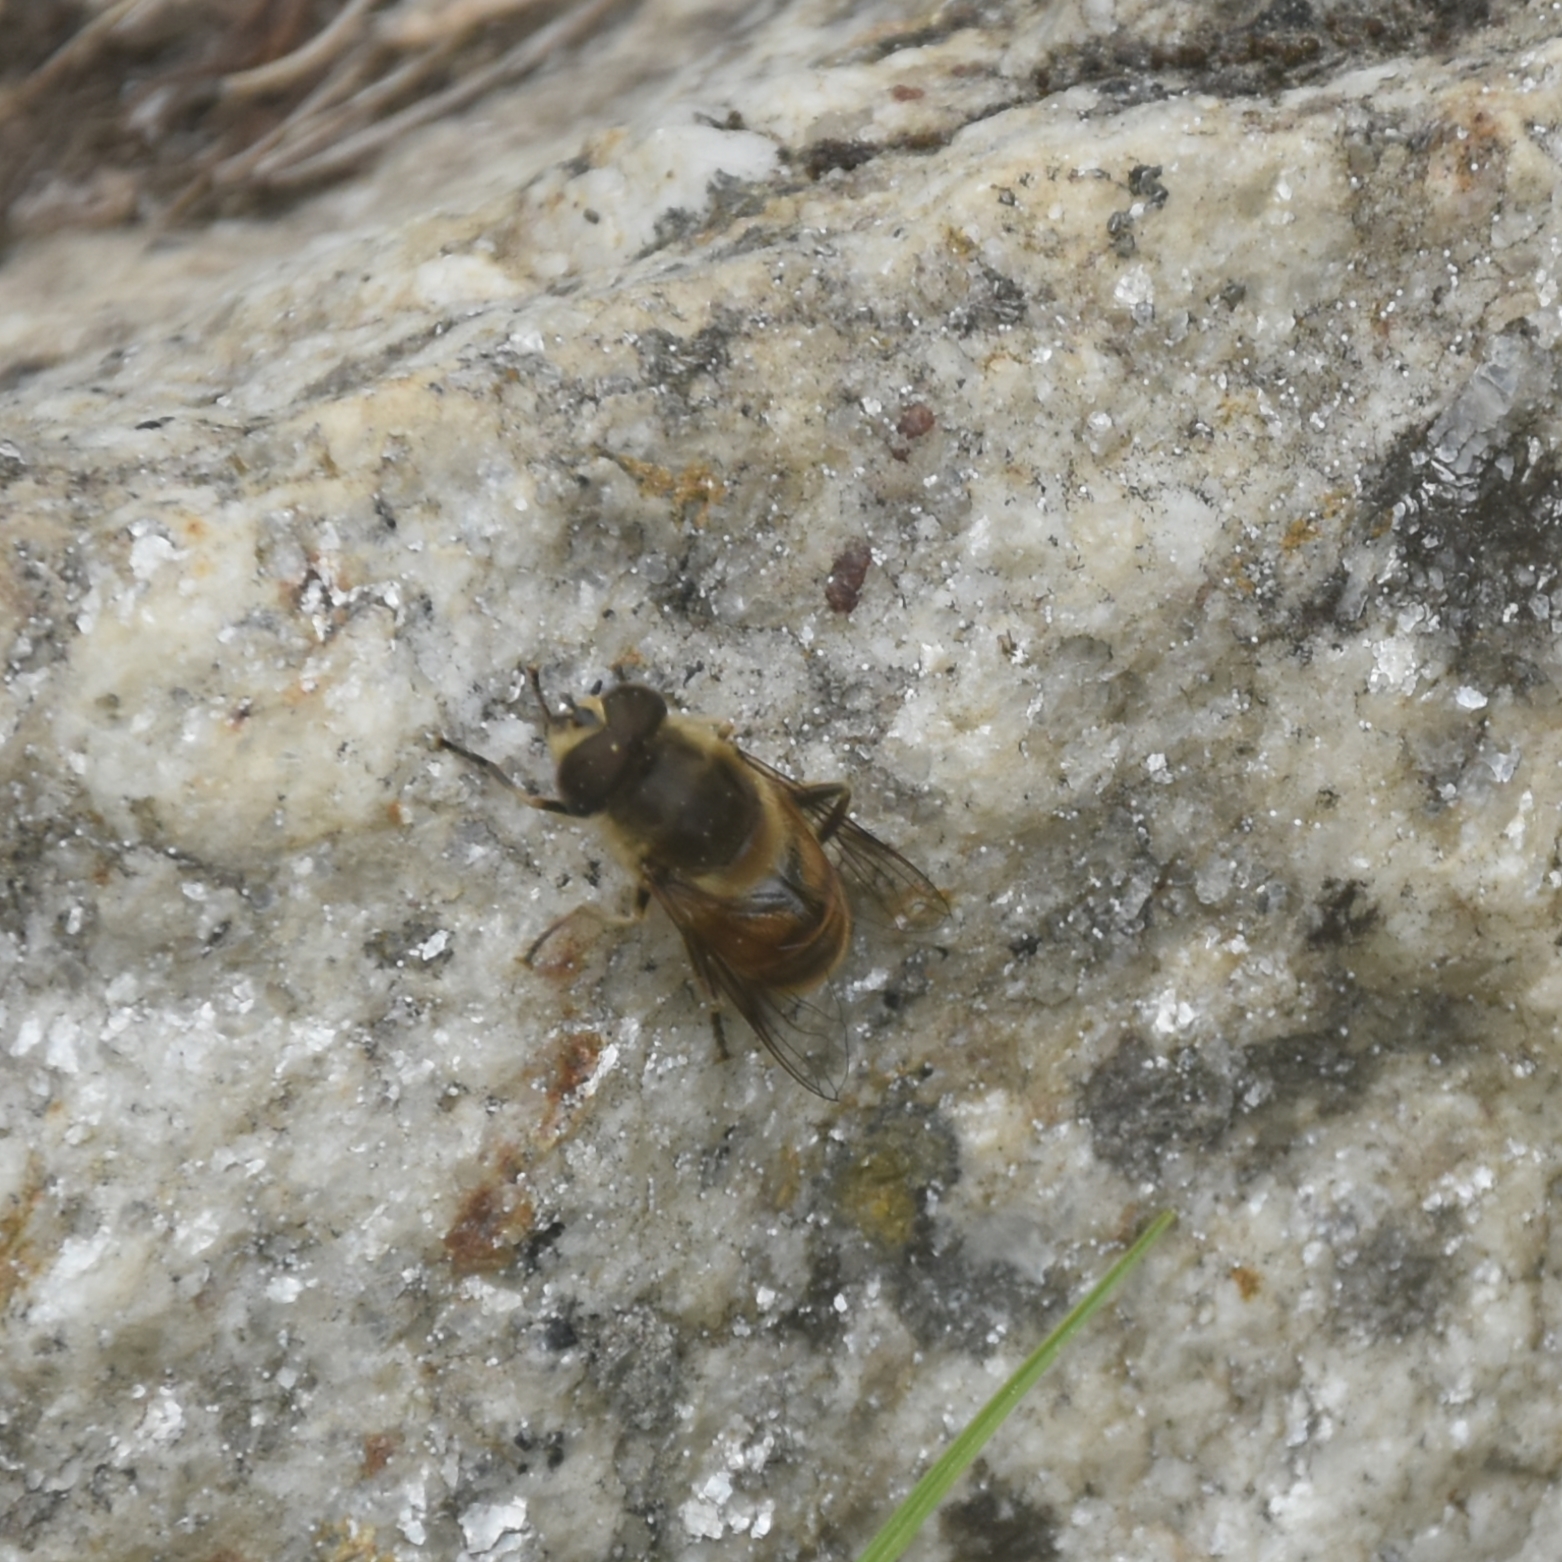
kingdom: Animalia
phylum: Arthropoda
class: Insecta
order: Diptera
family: Syrphidae
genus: Eristalis
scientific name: Eristalis tenax
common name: Drone fly
